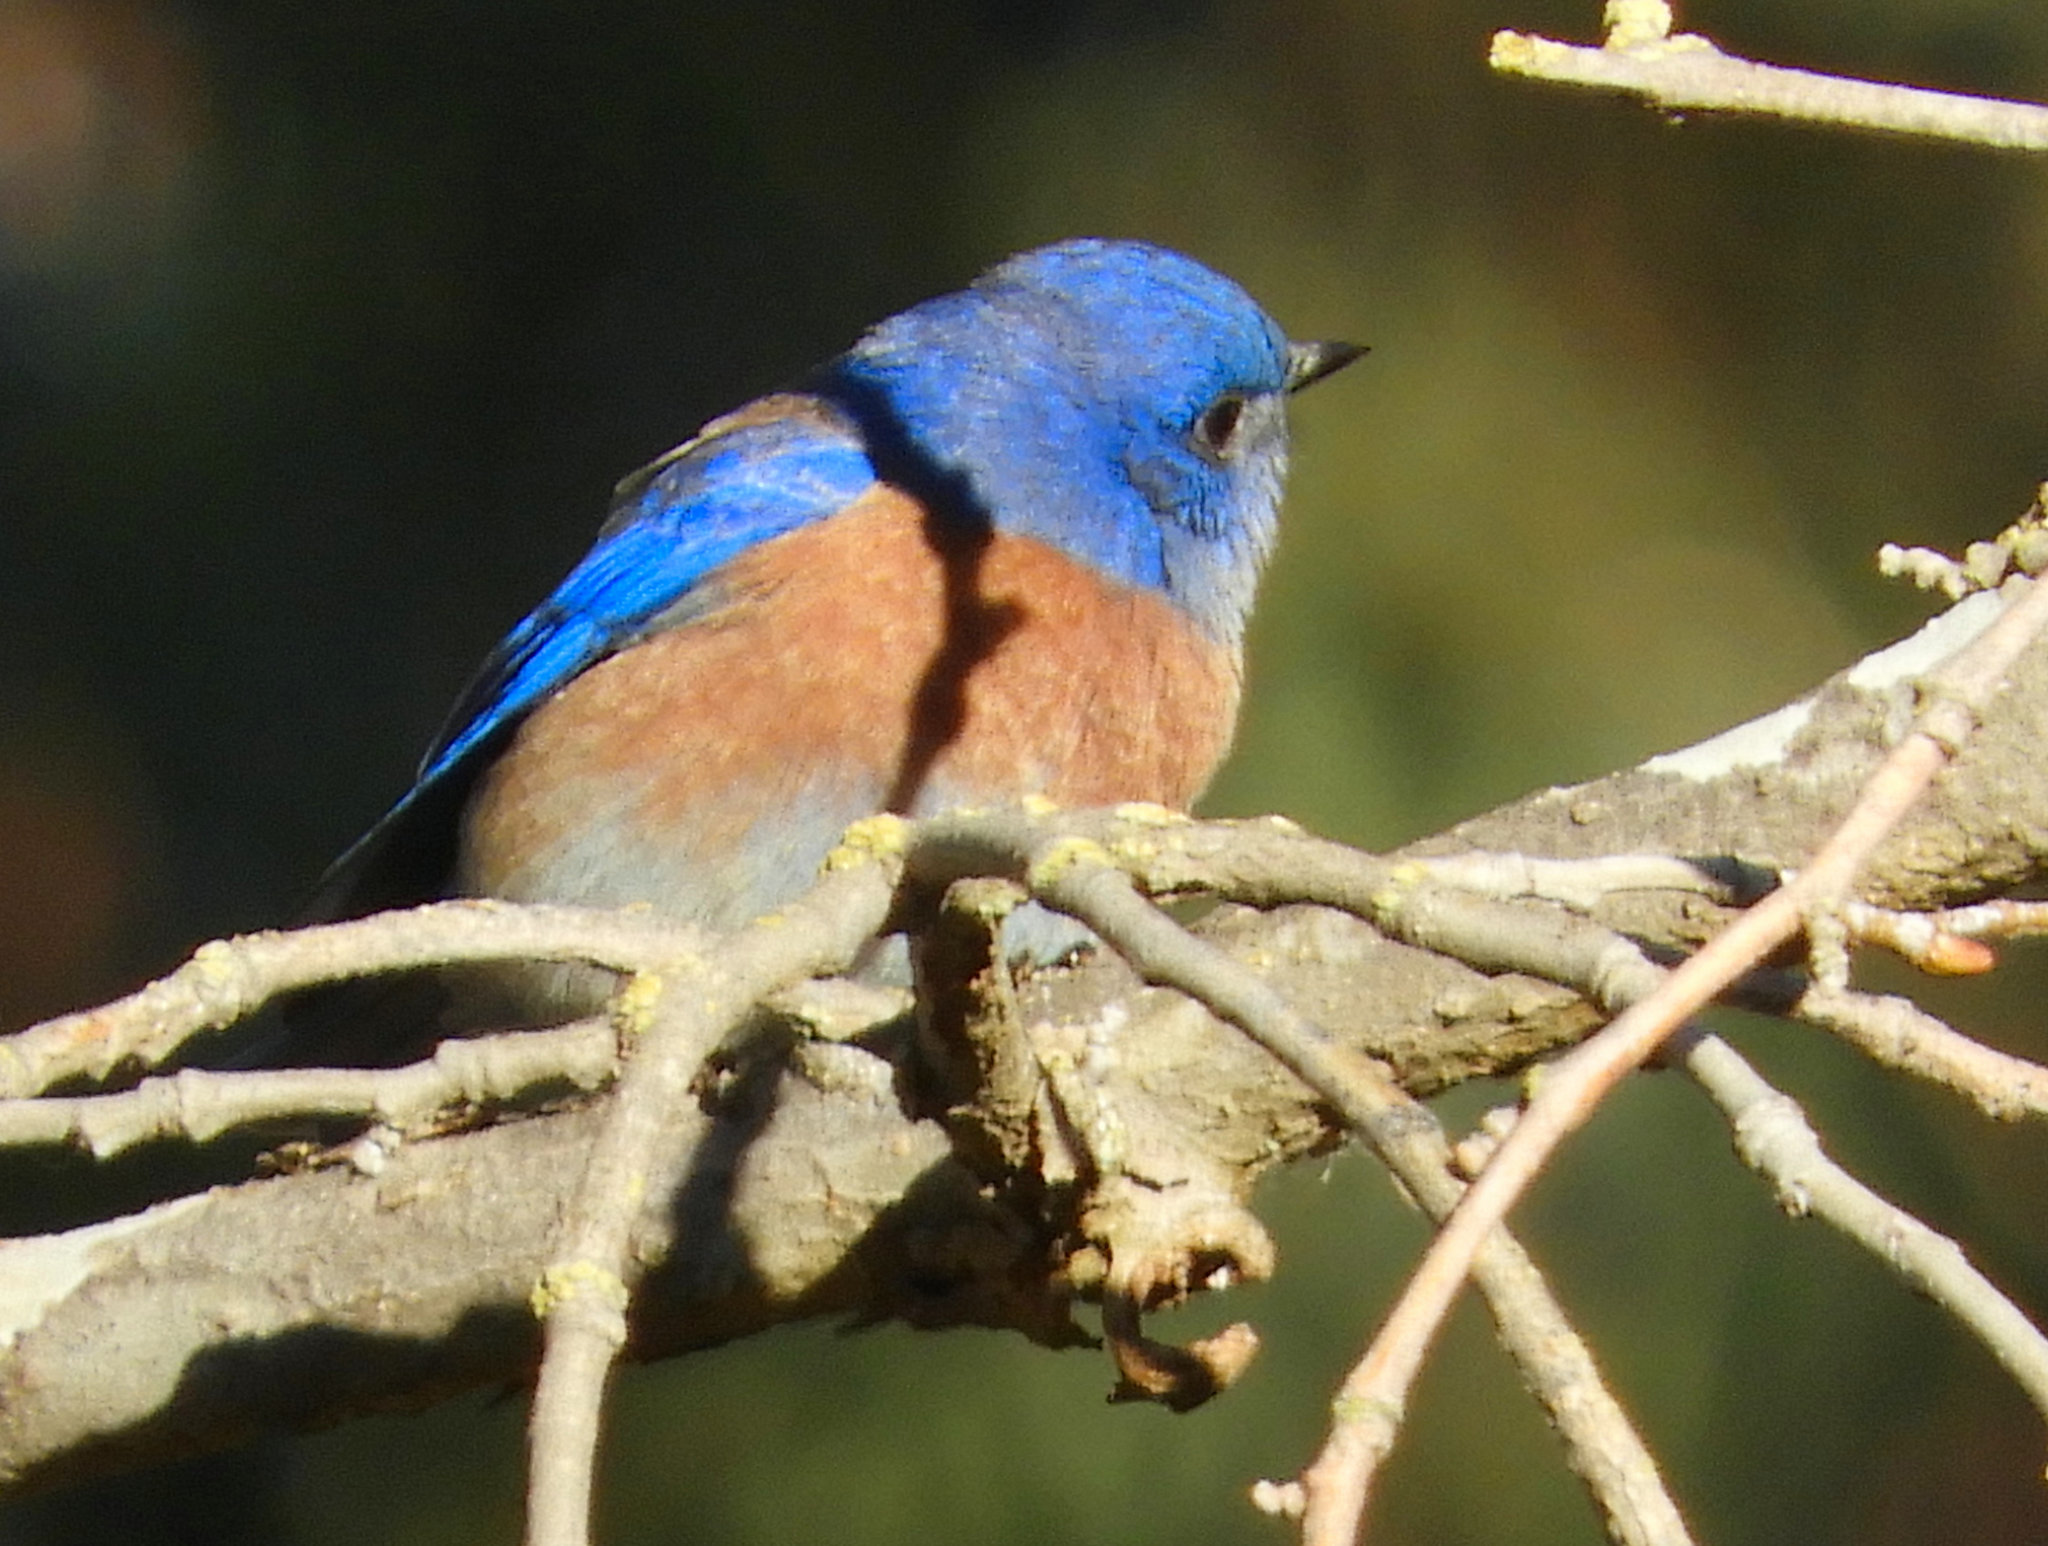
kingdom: Animalia
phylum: Chordata
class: Aves
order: Passeriformes
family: Turdidae
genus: Sialia
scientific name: Sialia mexicana
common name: Western bluebird
